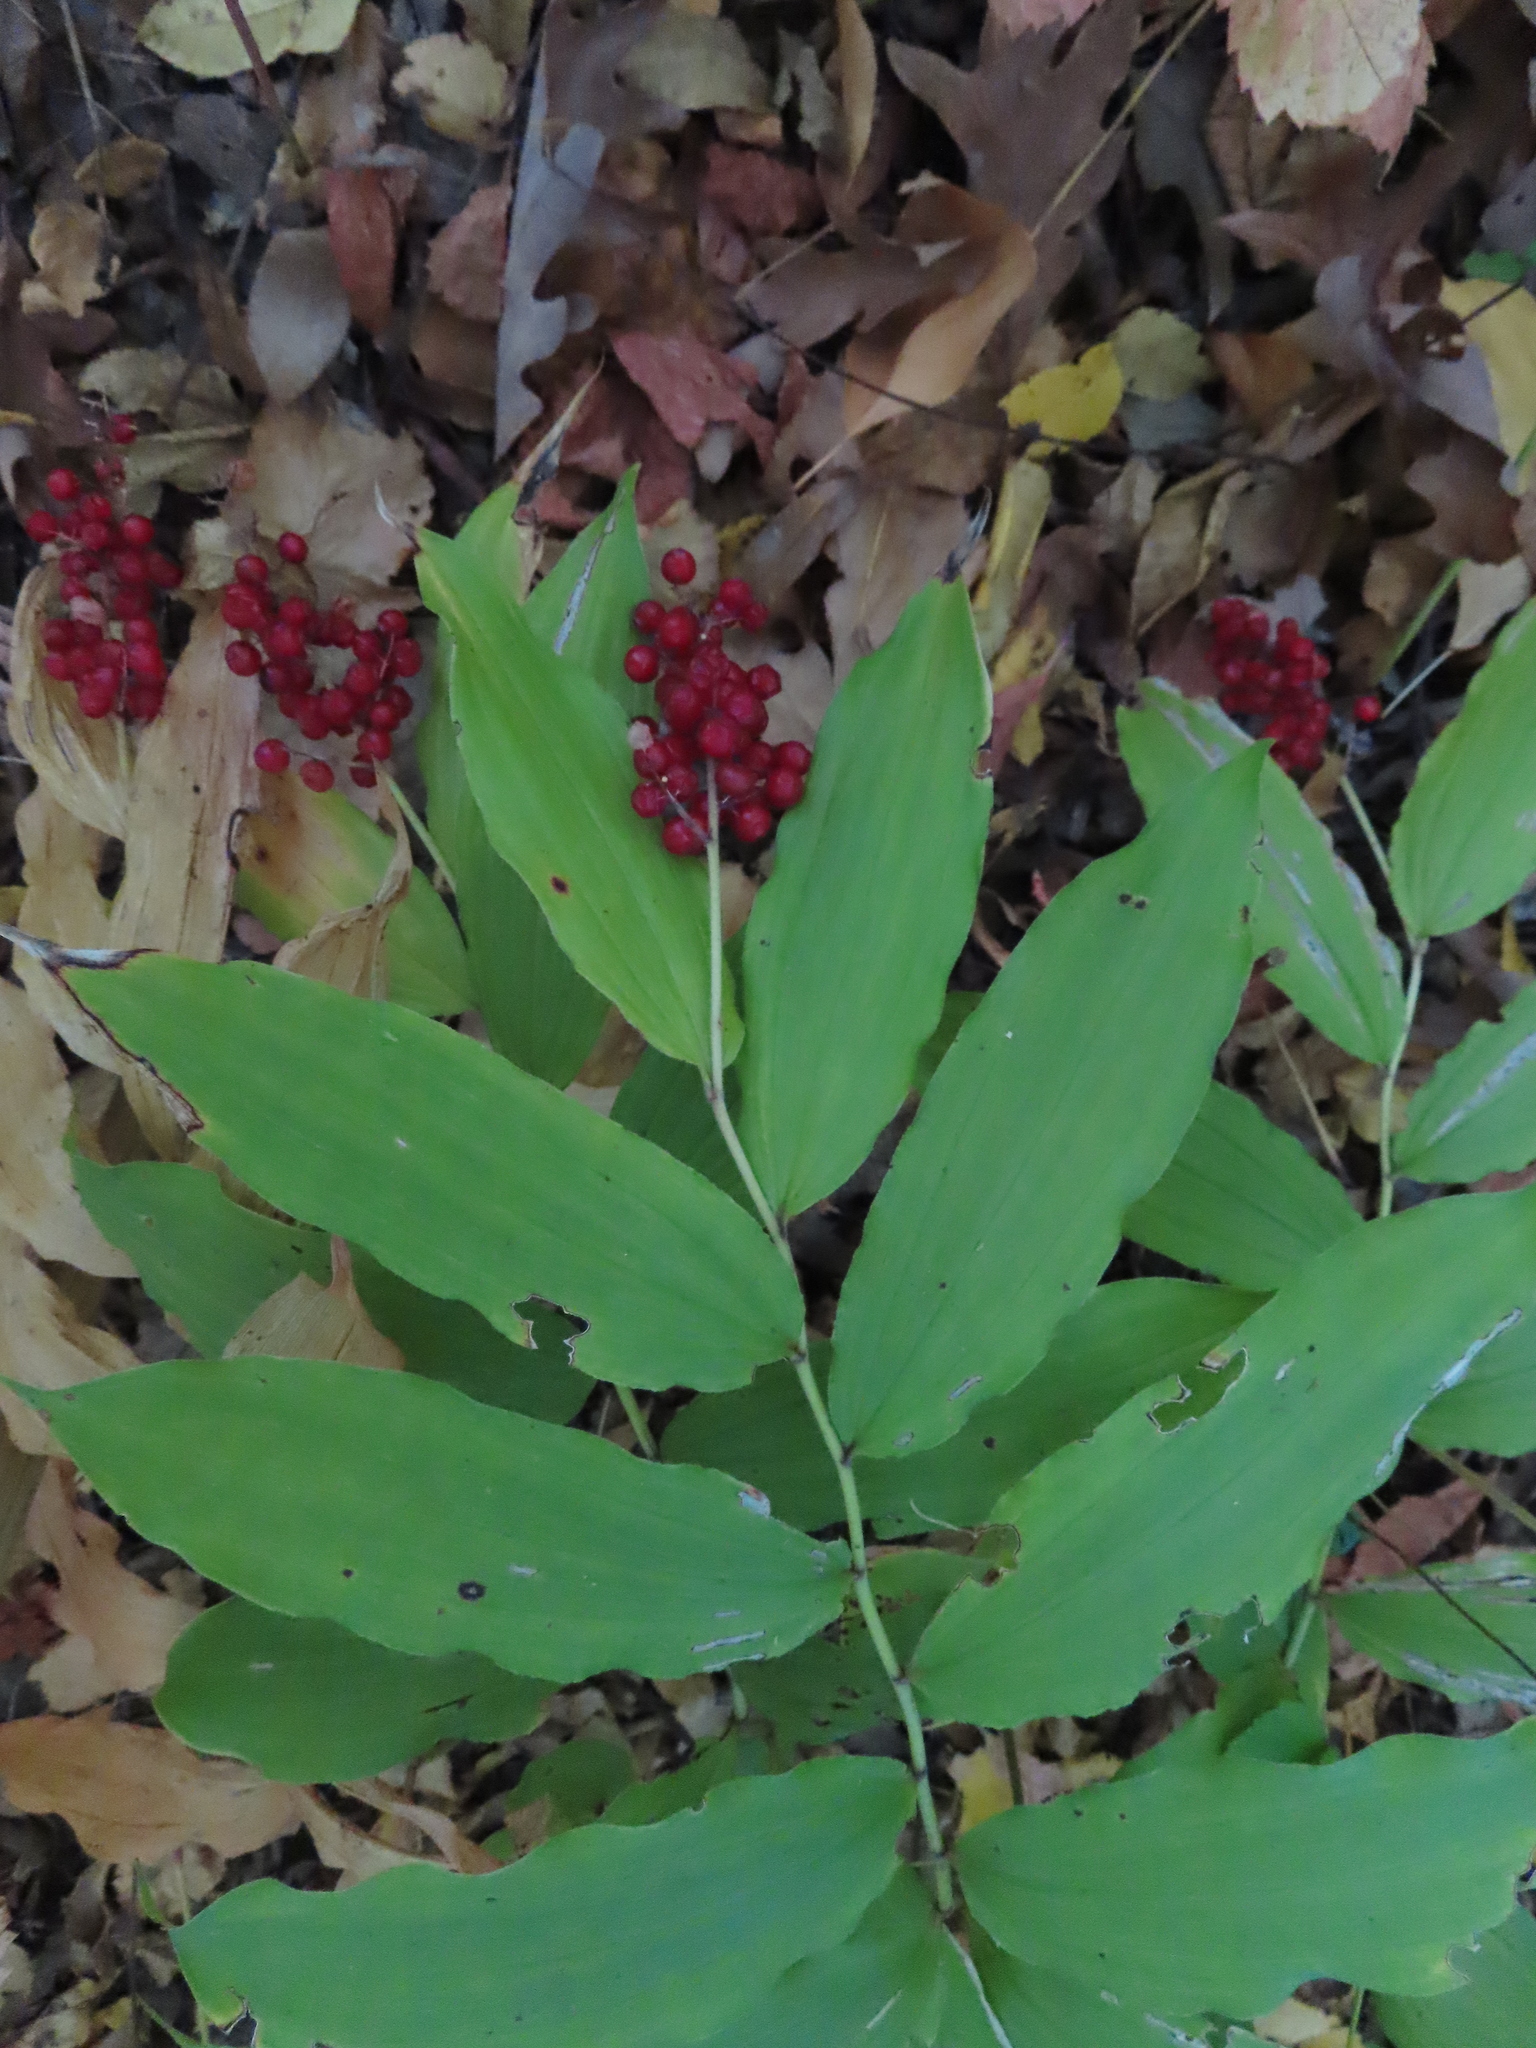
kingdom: Plantae
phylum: Tracheophyta
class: Liliopsida
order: Asparagales
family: Asparagaceae
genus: Maianthemum
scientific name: Maianthemum racemosum
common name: False spikenard
